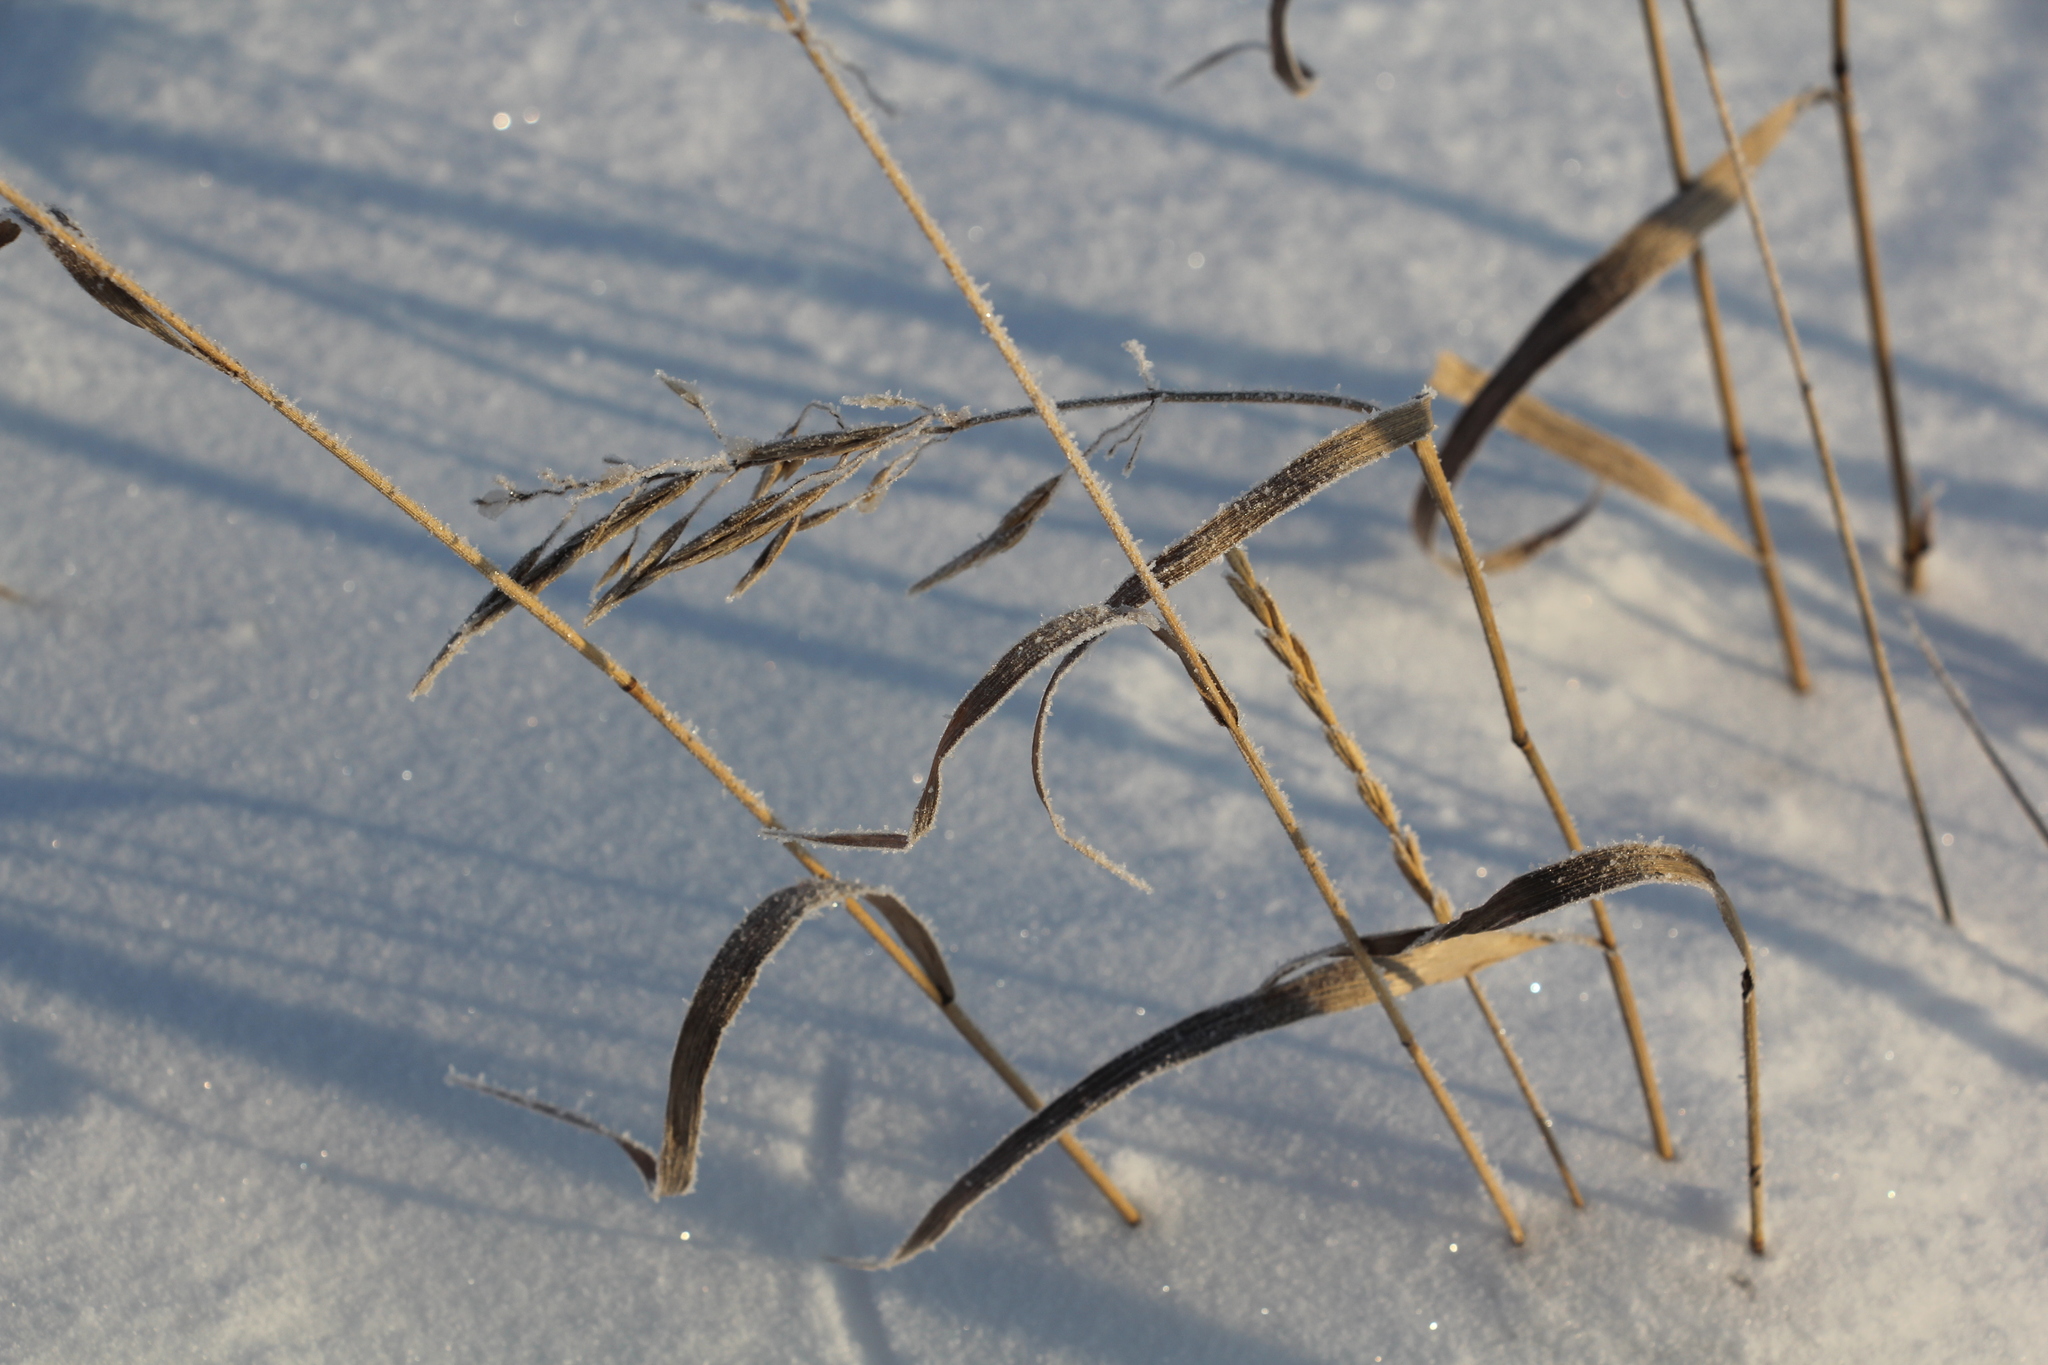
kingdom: Plantae
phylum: Tracheophyta
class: Liliopsida
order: Poales
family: Poaceae
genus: Bromus
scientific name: Bromus inermis
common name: Smooth brome
